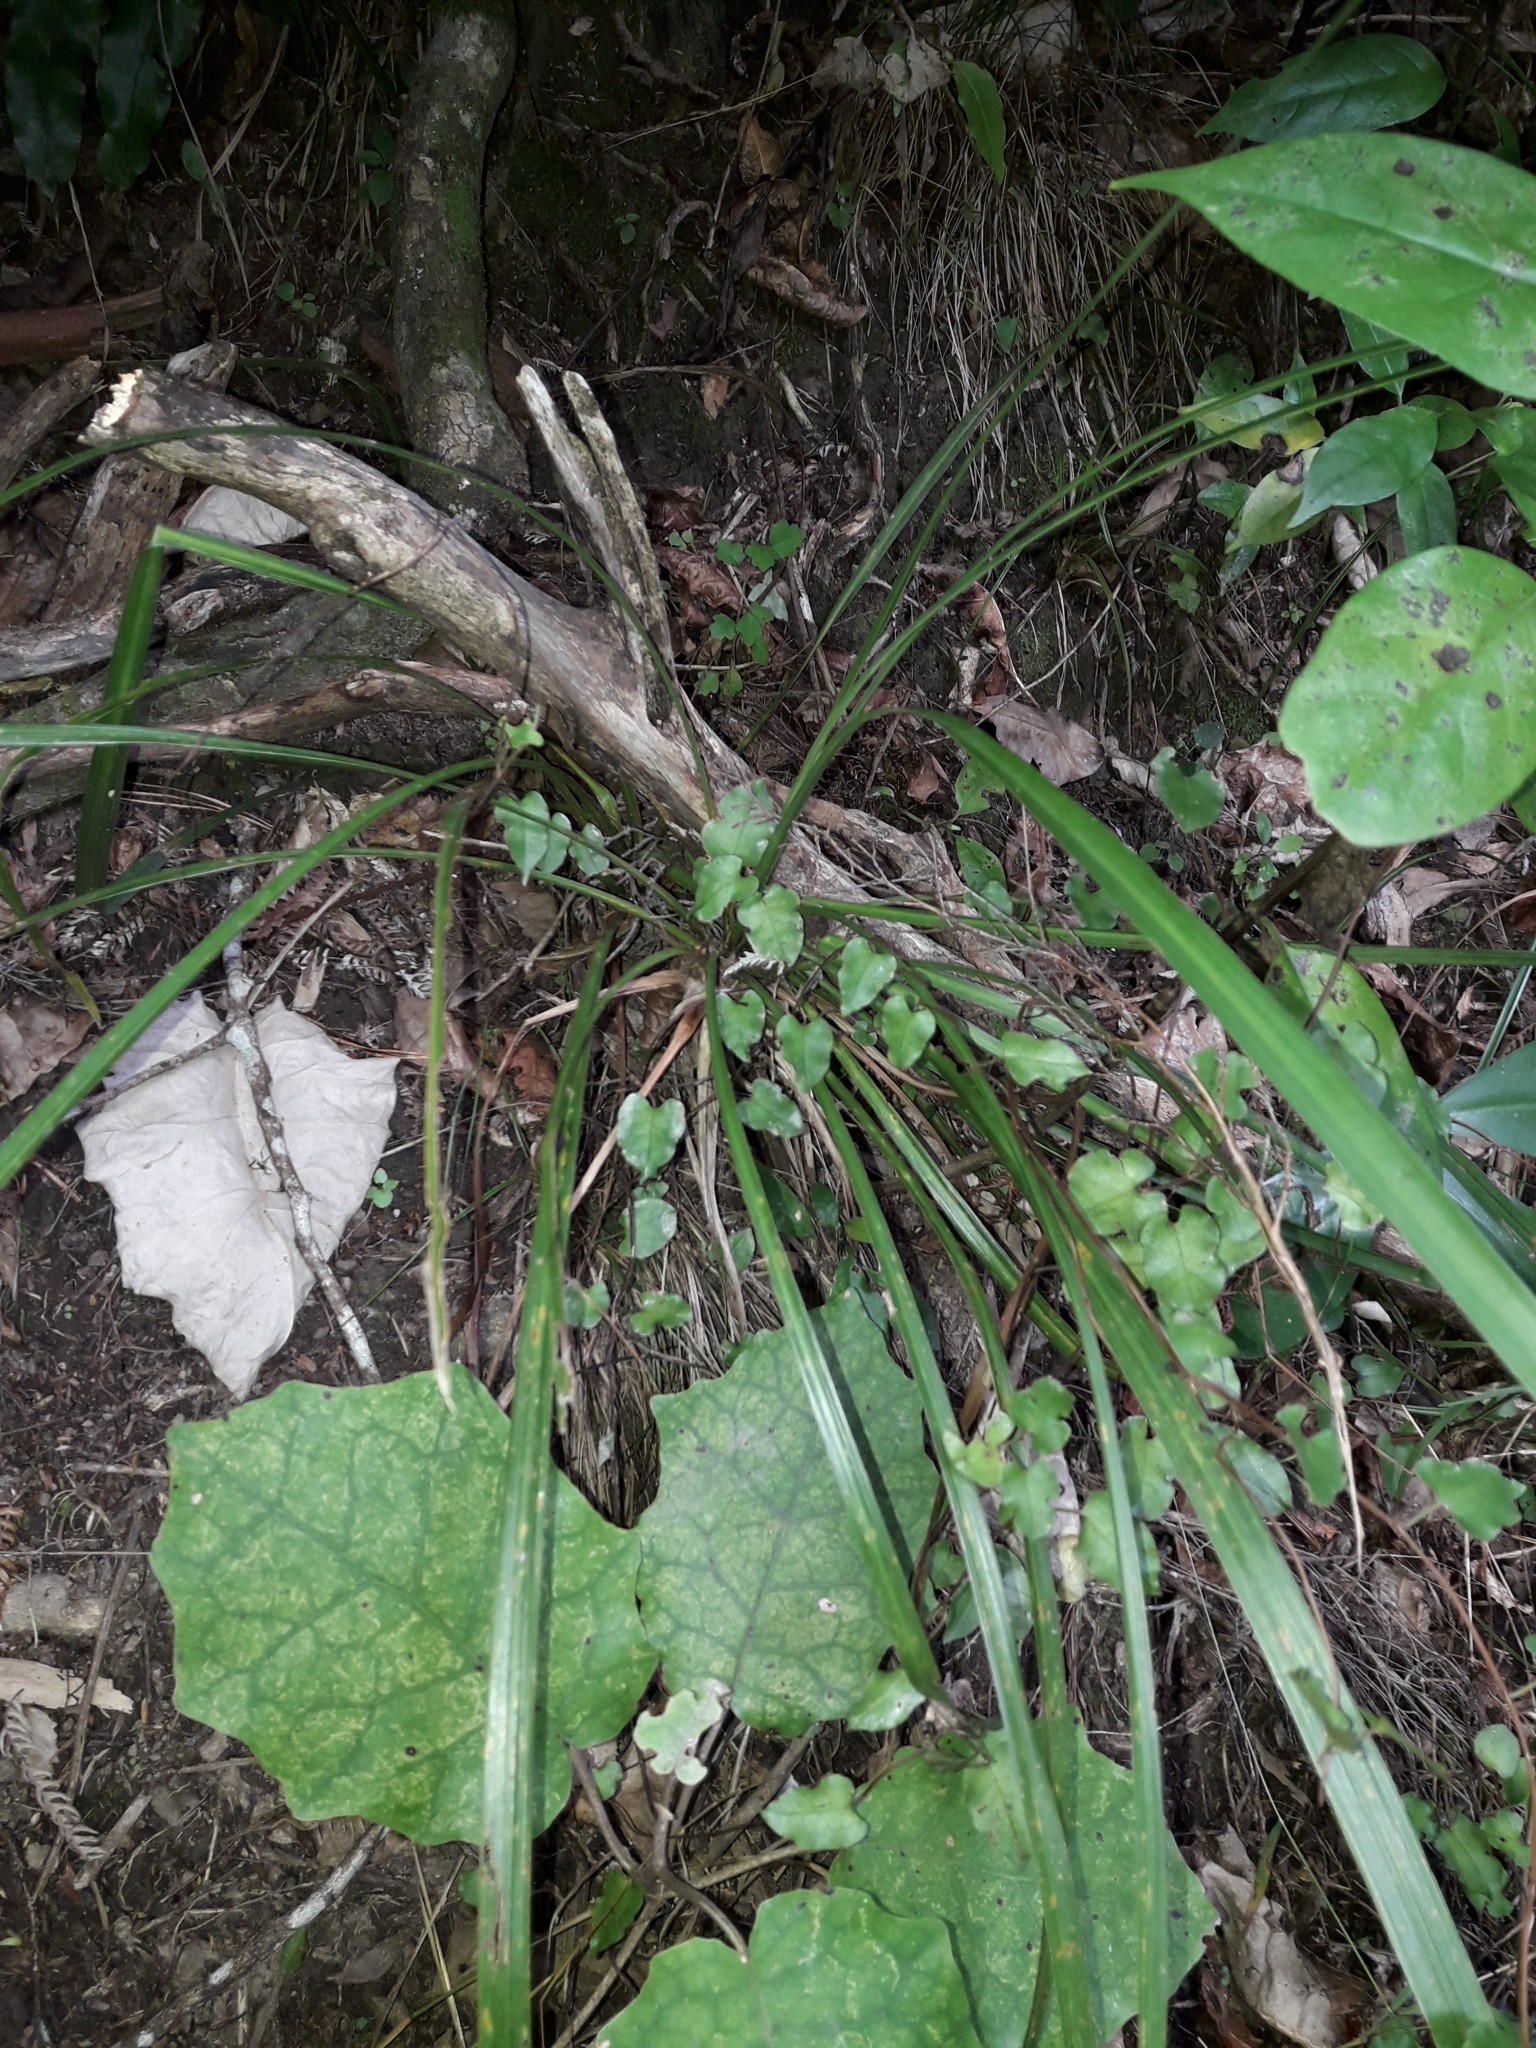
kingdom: Plantae
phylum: Tracheophyta
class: Liliopsida
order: Asparagales
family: Asparagaceae
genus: Cordyline
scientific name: Cordyline australis
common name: Cabbage-palm
